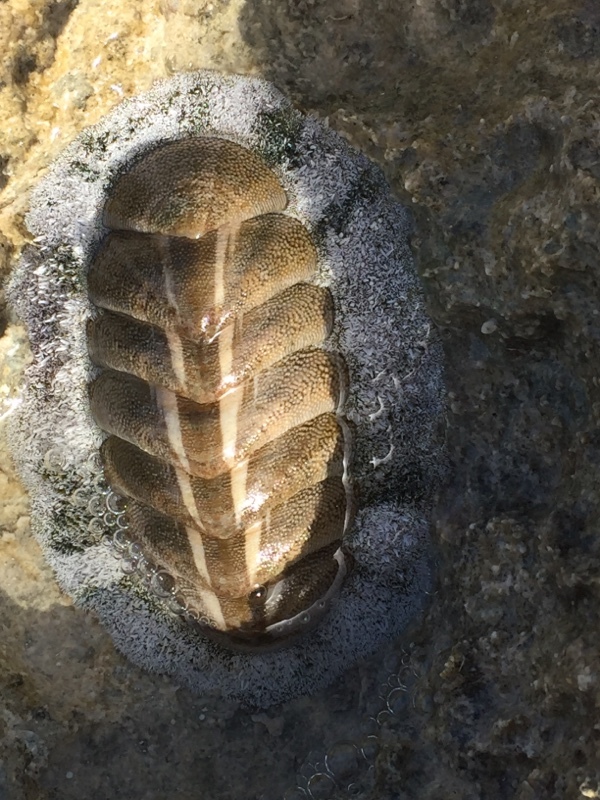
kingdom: Animalia
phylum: Mollusca
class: Polyplacophora
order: Chitonida
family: Chitonidae
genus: Acanthopleura
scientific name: Acanthopleura granulata
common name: West indian fuzzy chiton
